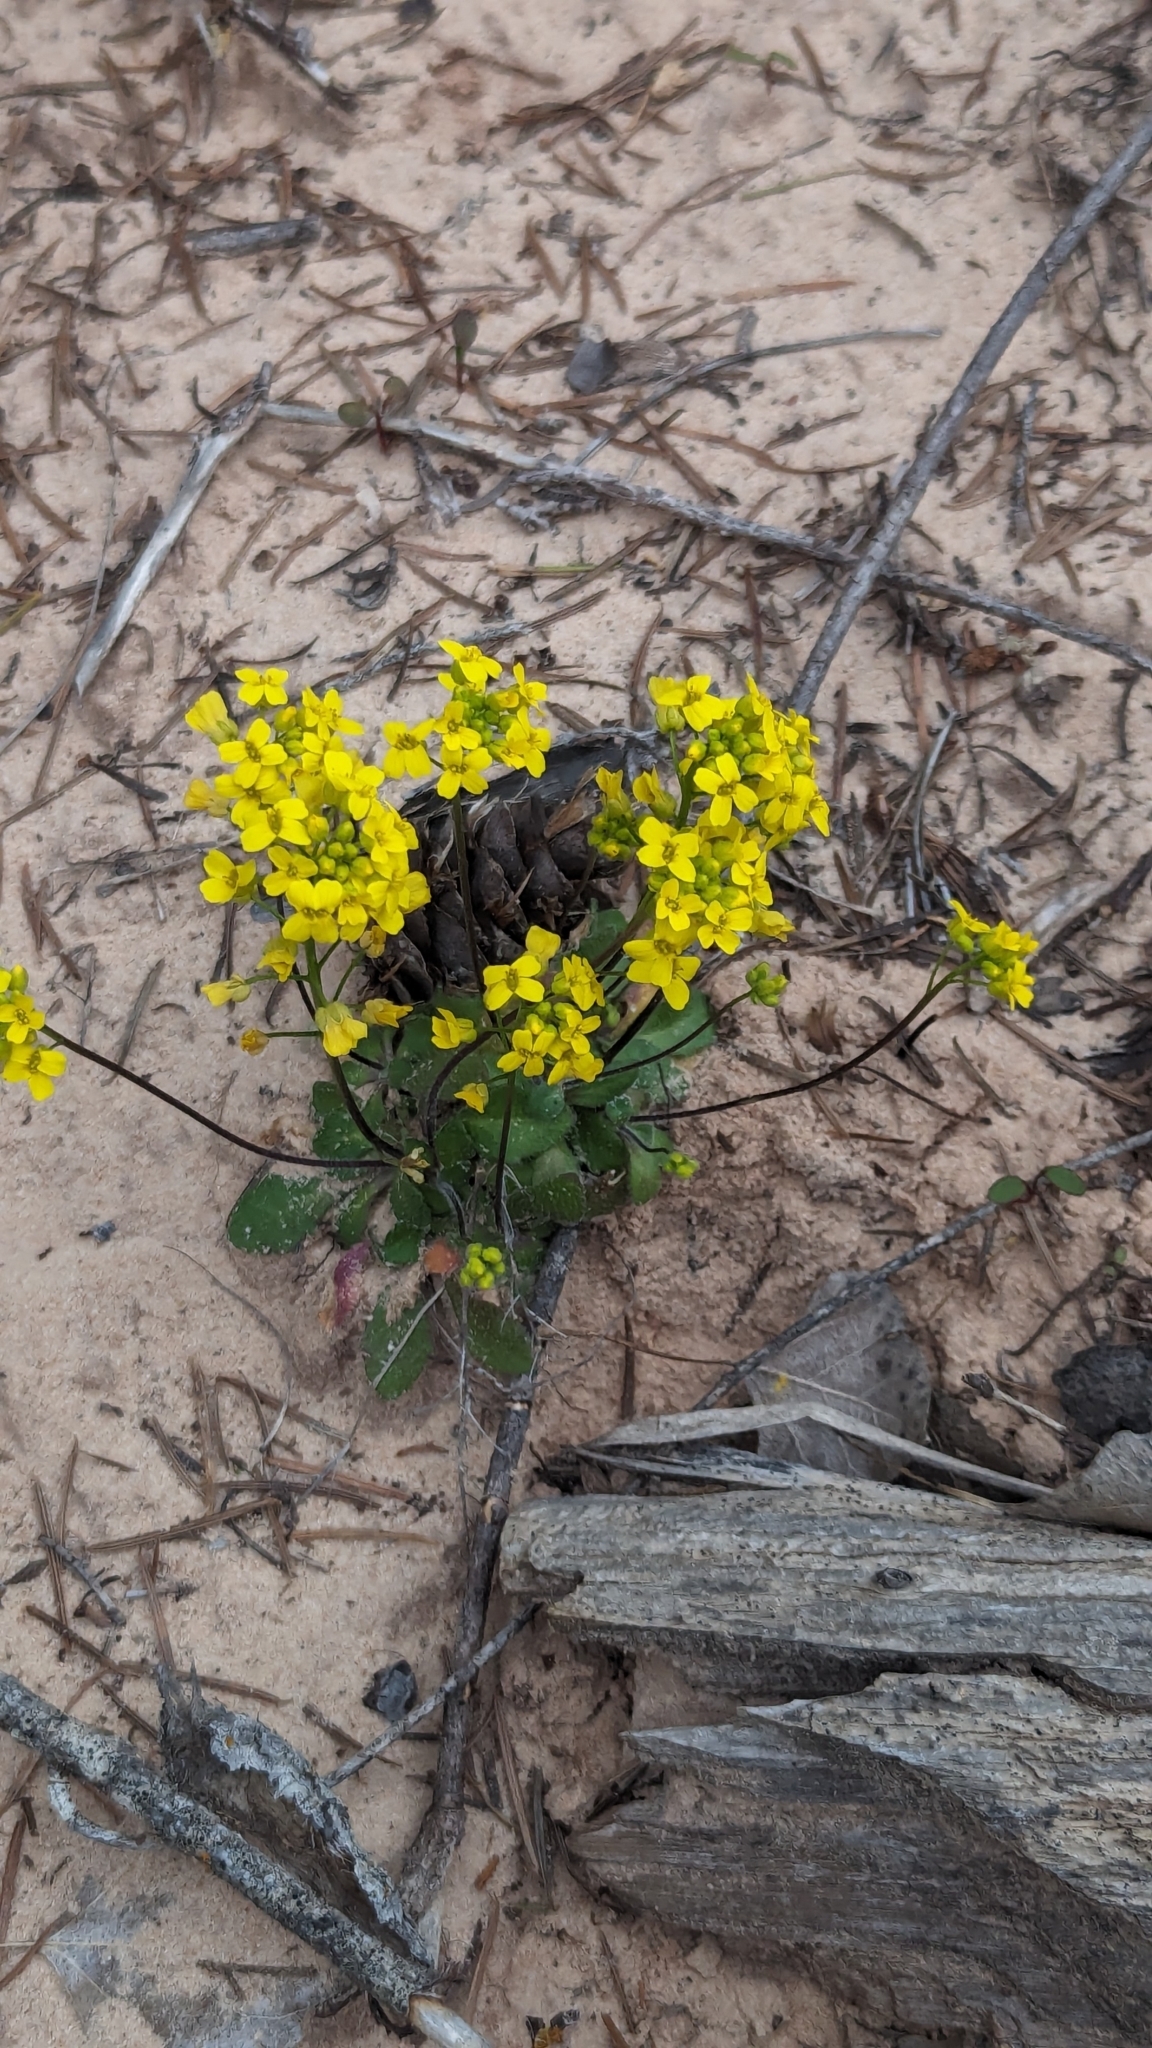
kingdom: Plantae
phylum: Tracheophyta
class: Magnoliopsida
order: Brassicales
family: Brassicaceae
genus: Draba
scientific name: Draba zionensis
